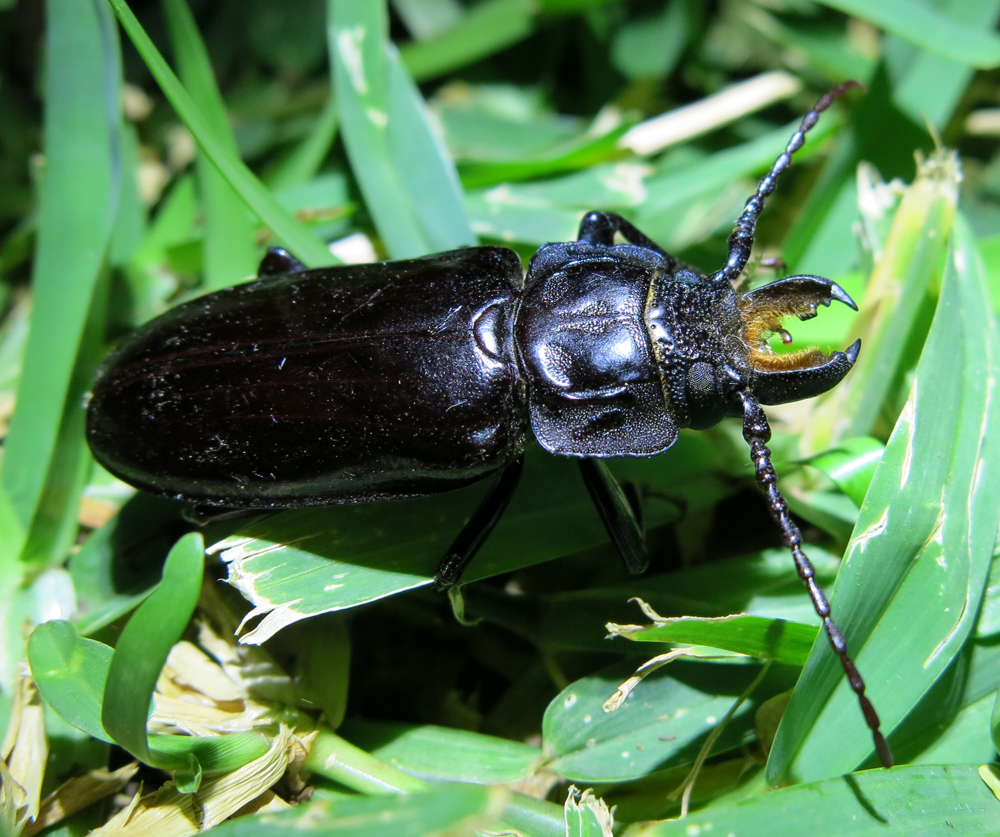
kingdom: Animalia
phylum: Arthropoda
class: Insecta
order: Coleoptera
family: Cerambycidae
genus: Mallodon
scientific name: Mallodon downesii
